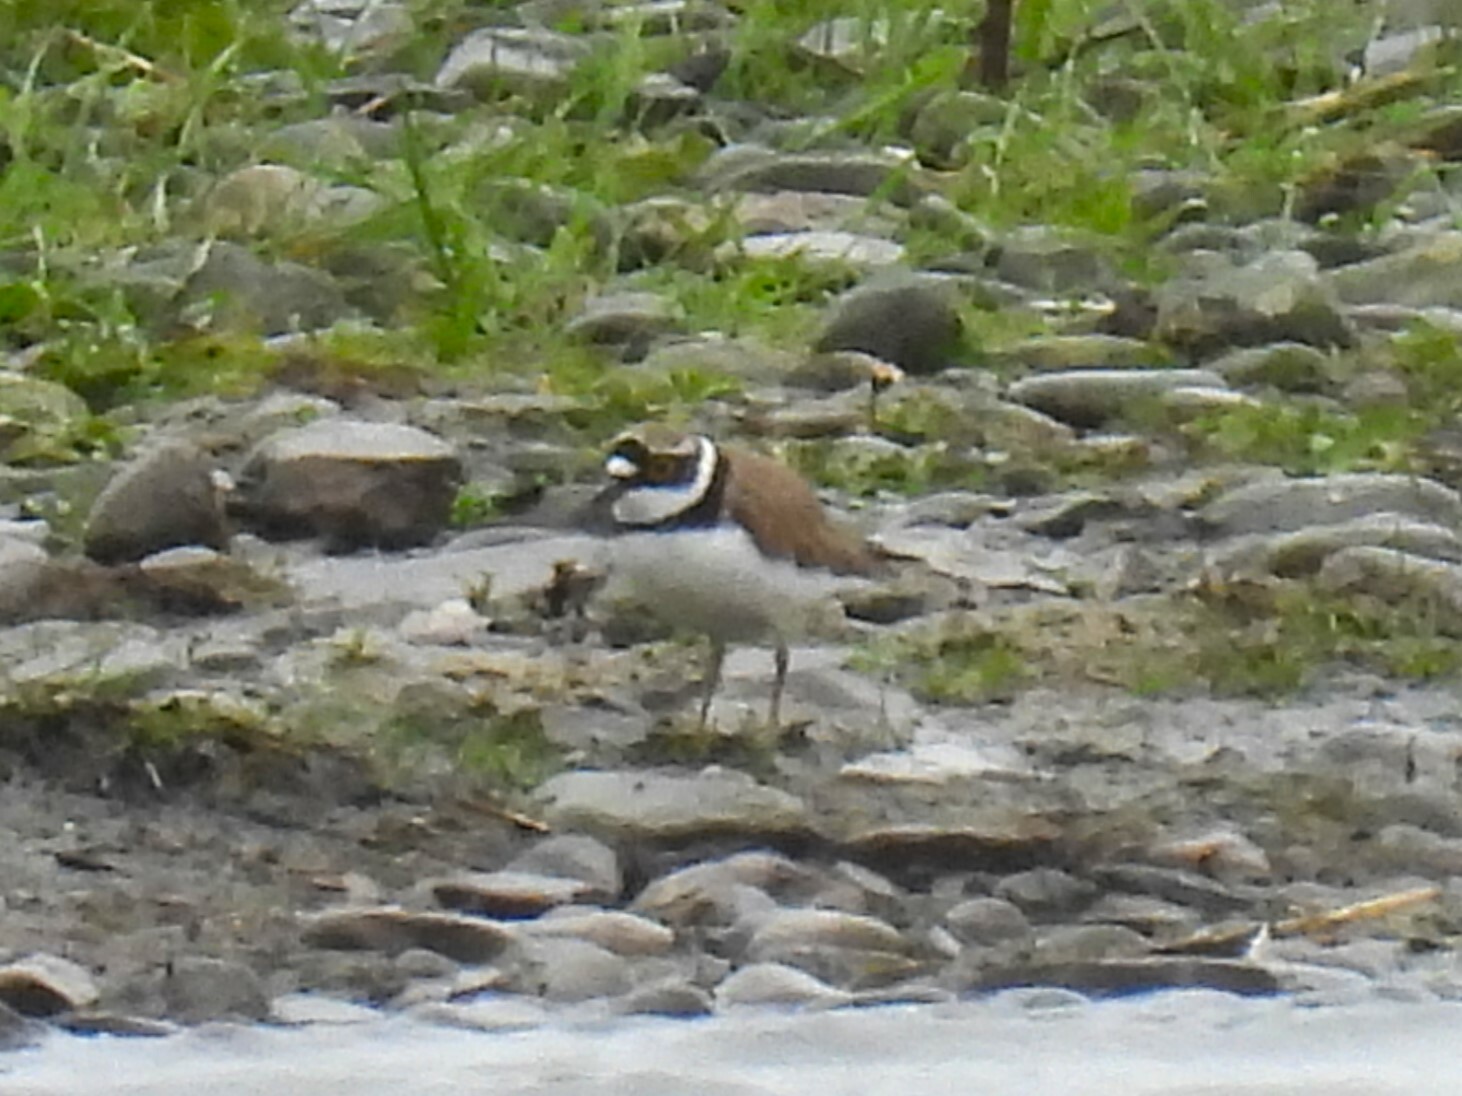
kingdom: Animalia
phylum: Chordata
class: Aves
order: Charadriiformes
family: Charadriidae
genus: Charadrius
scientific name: Charadrius dubius
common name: Little ringed plover
